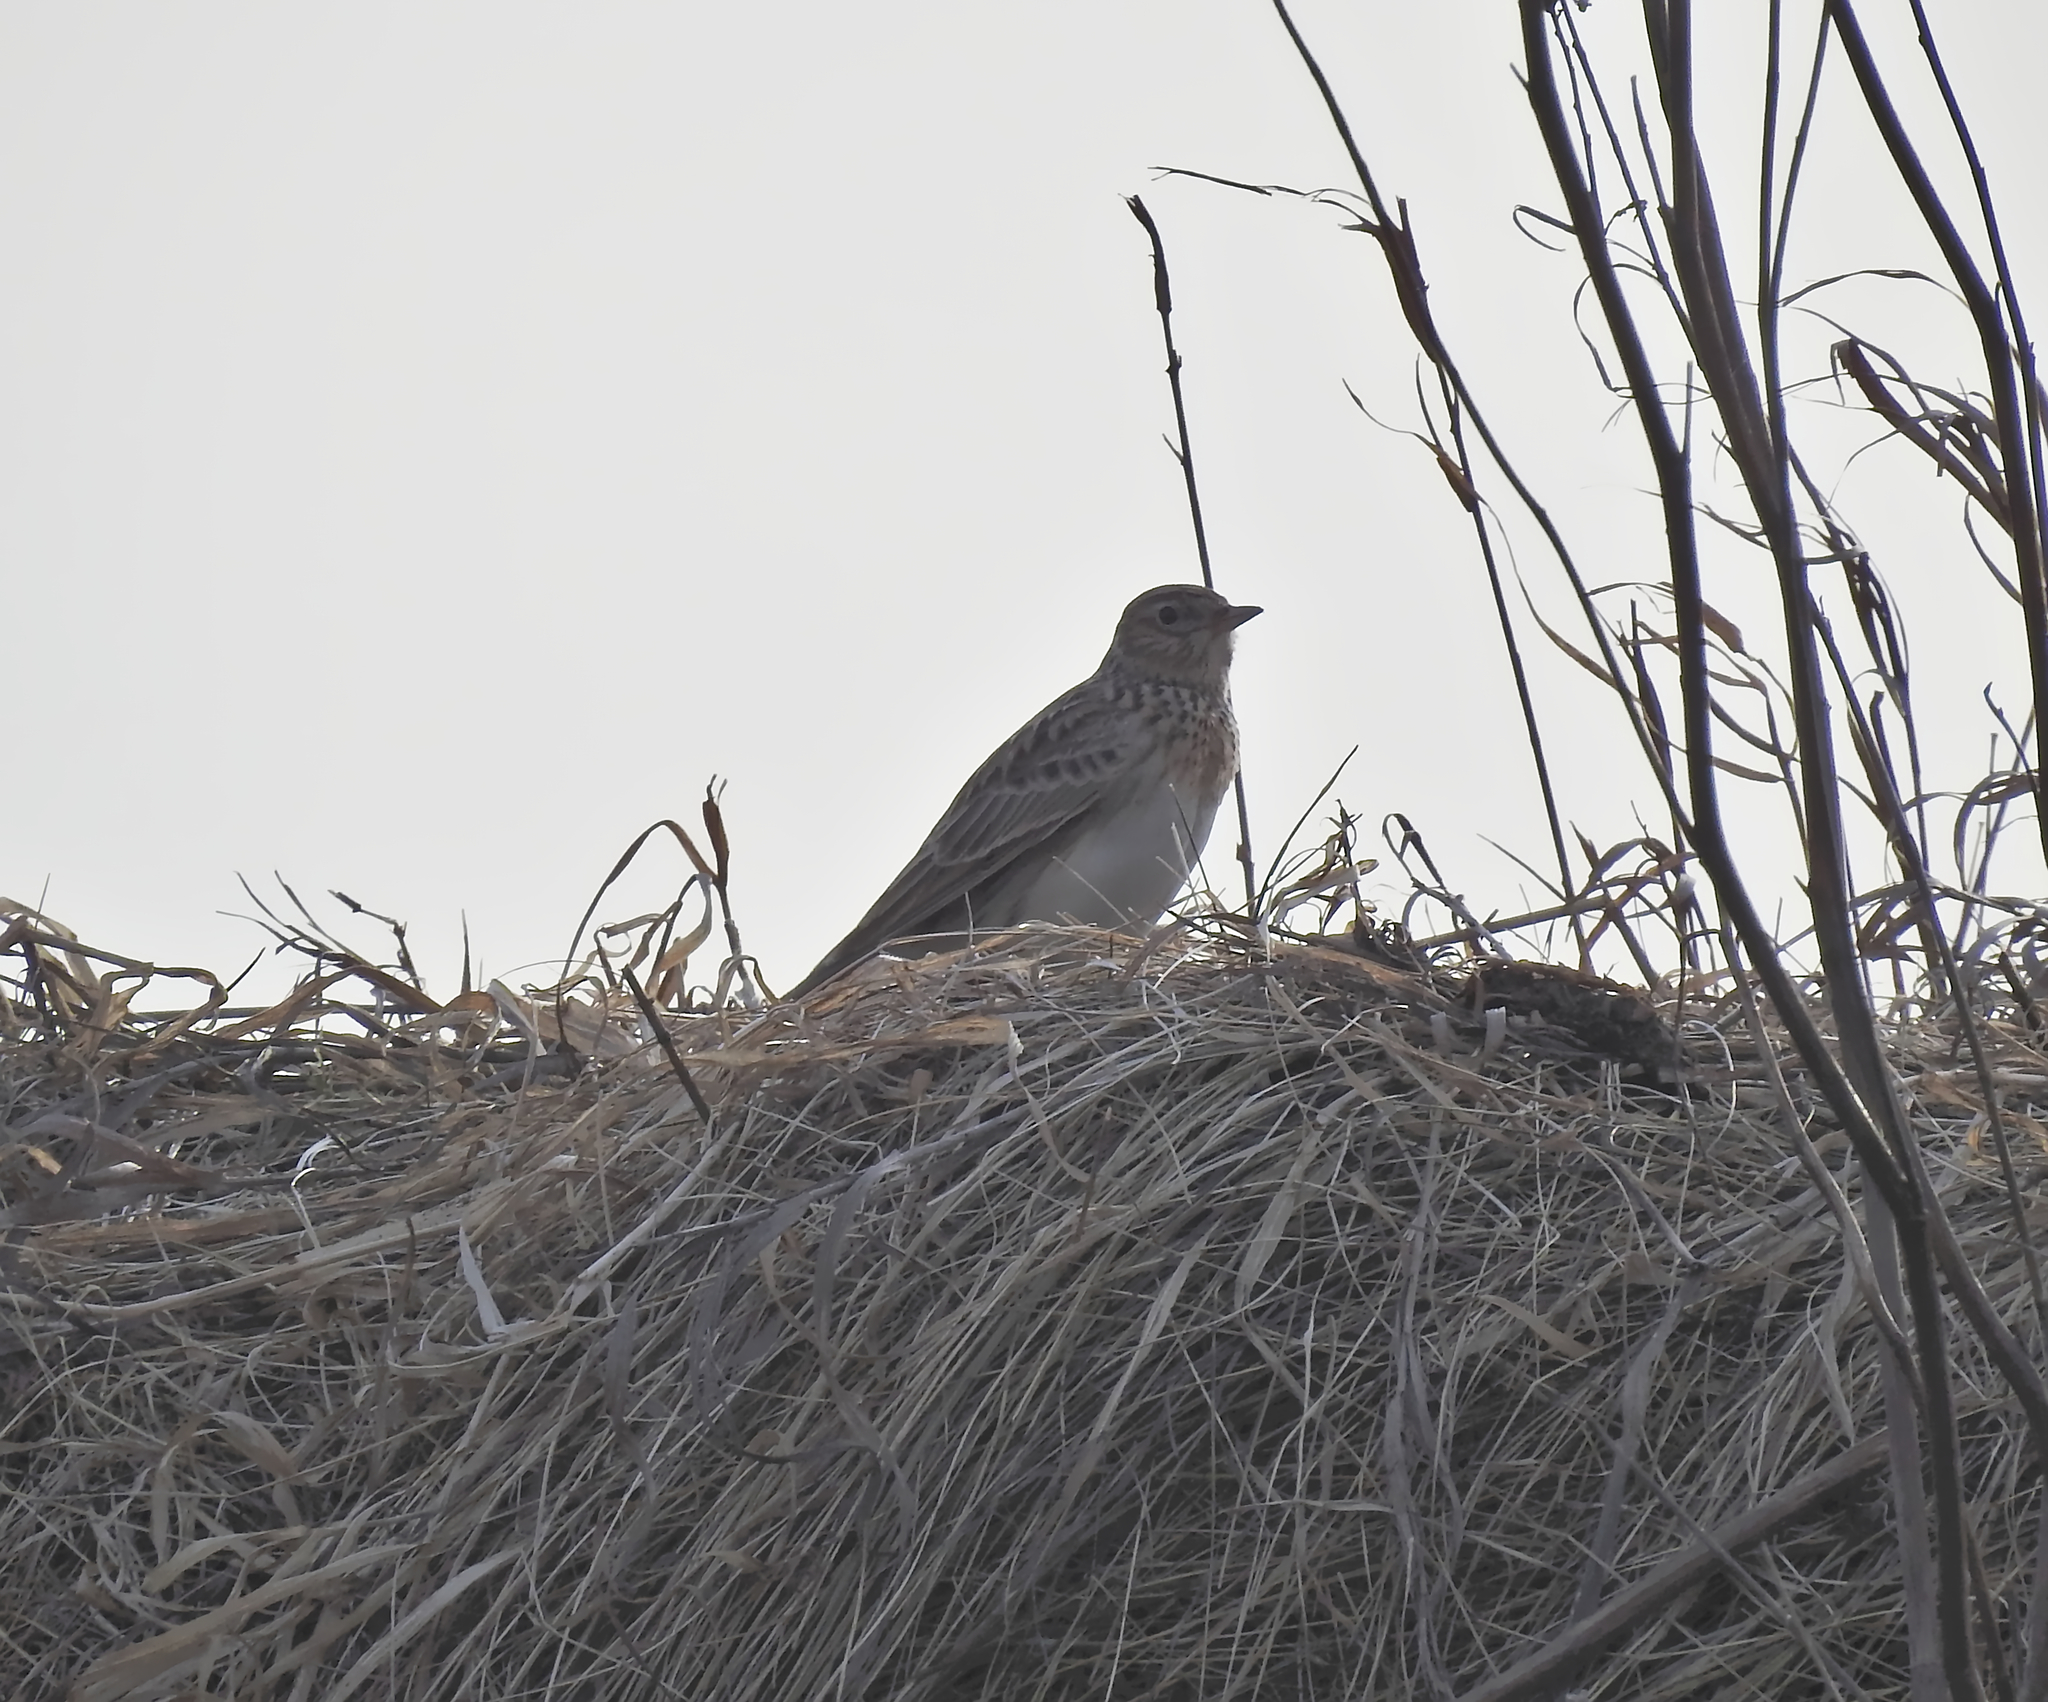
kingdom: Animalia
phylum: Chordata
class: Aves
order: Passeriformes
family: Alaudidae
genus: Alauda
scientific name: Alauda arvensis
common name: Eurasian skylark
